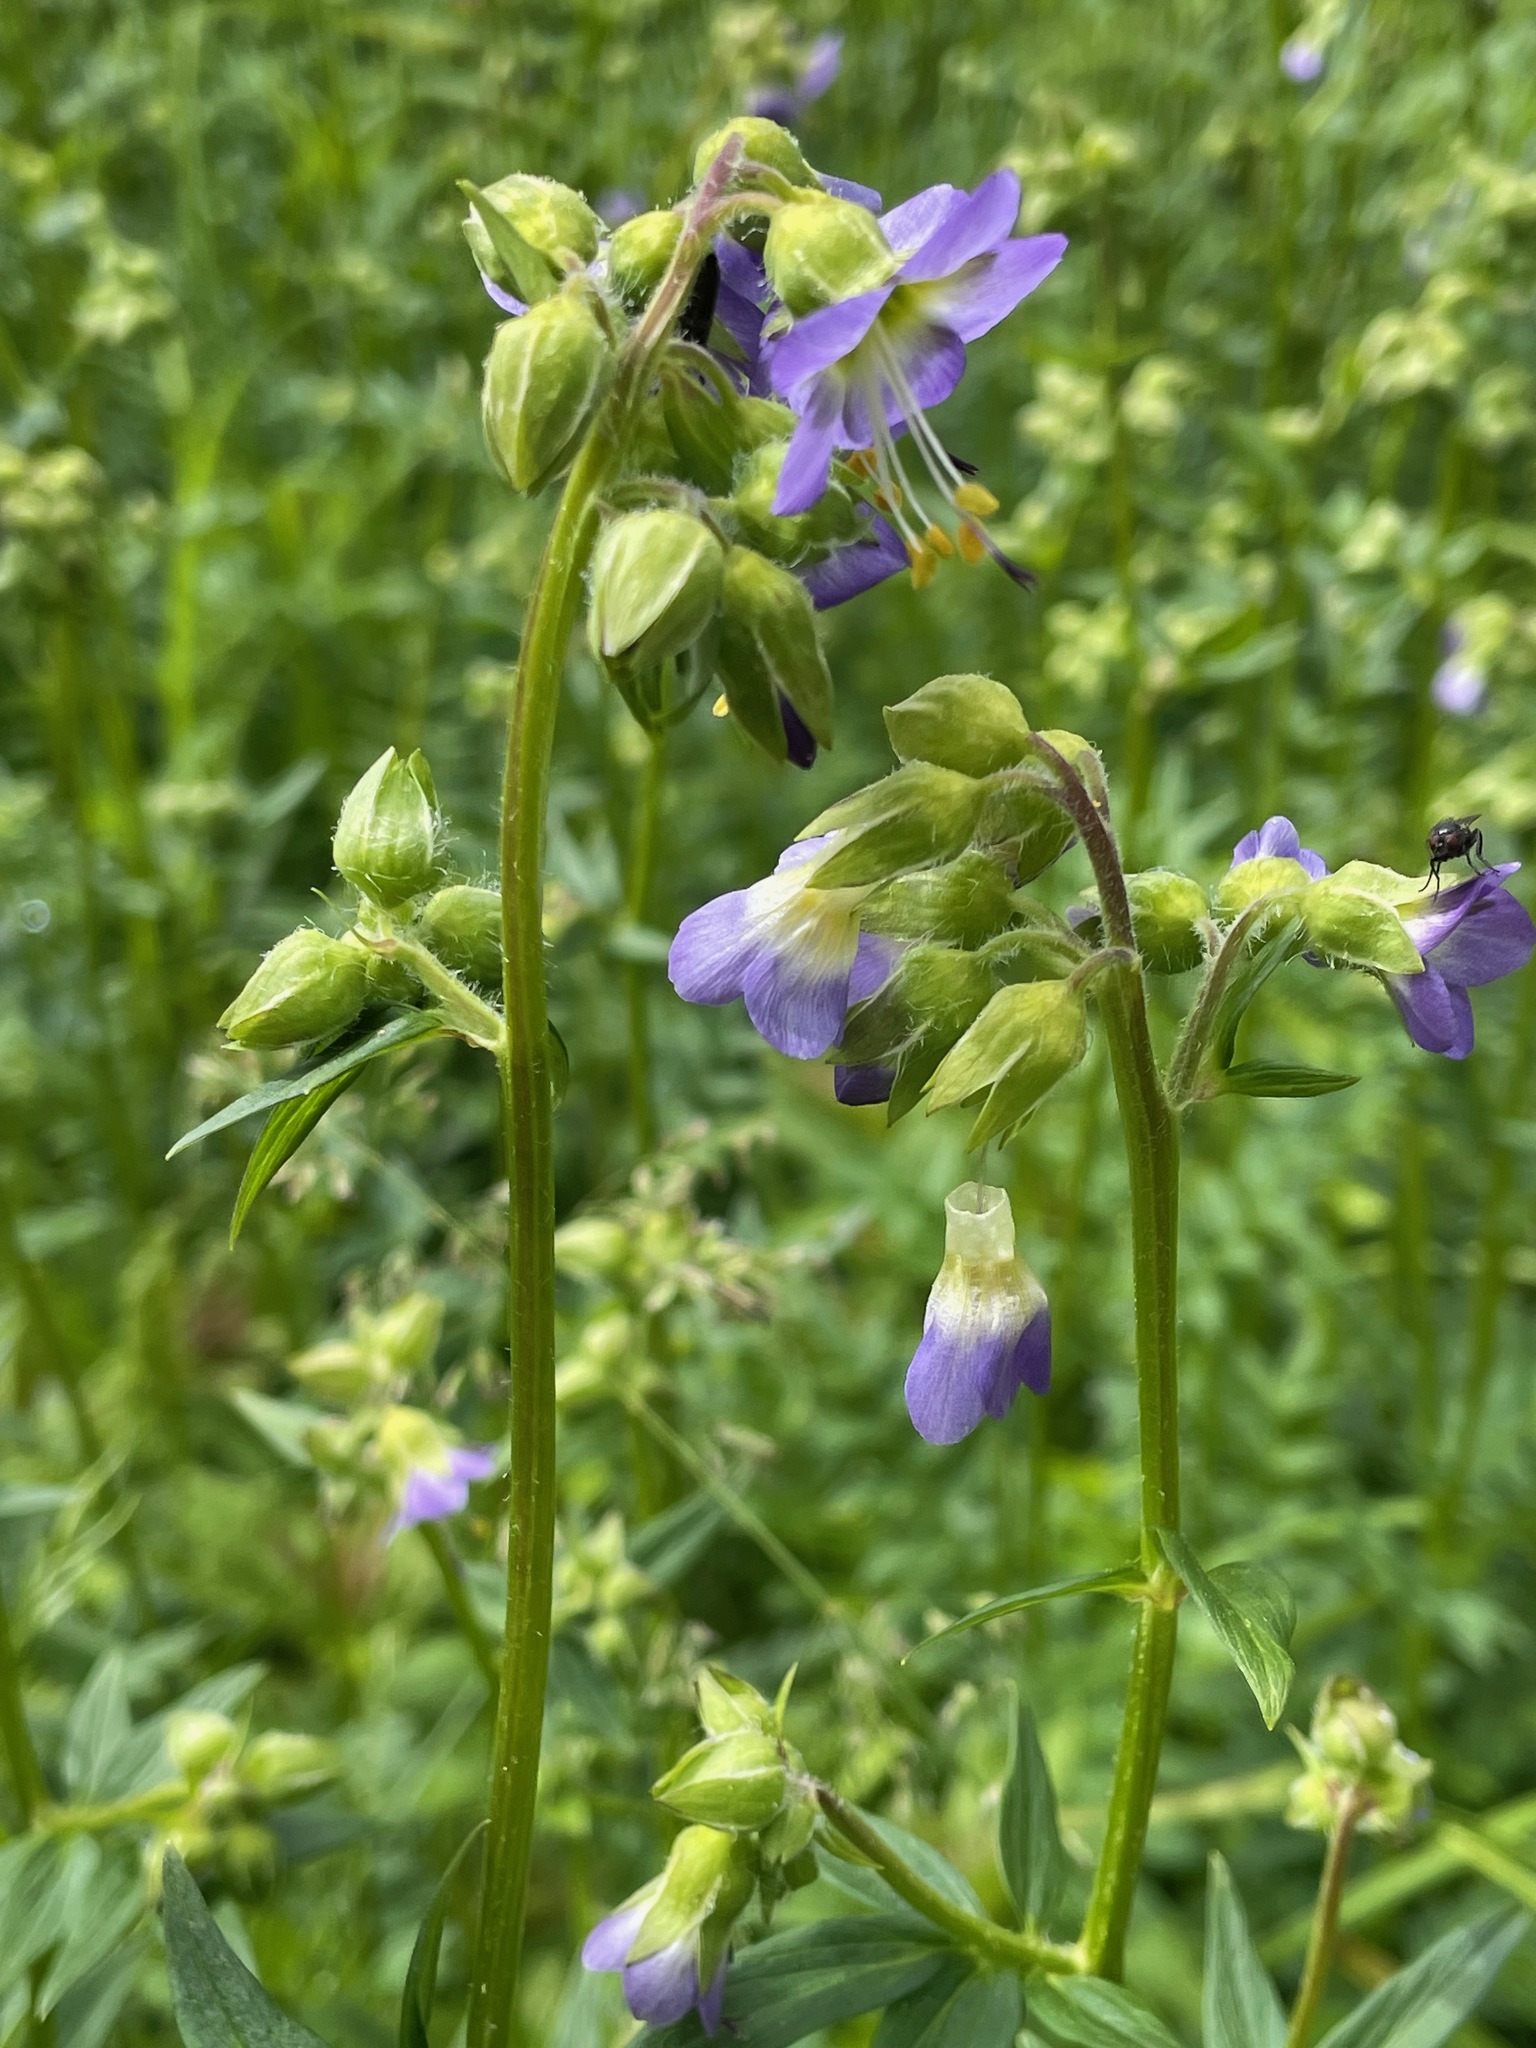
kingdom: Plantae
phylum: Tracheophyta
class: Magnoliopsida
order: Ericales
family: Polemoniaceae
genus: Polemonium
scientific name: Polemonium vanbruntiae
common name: Bog jacob's-ladder
